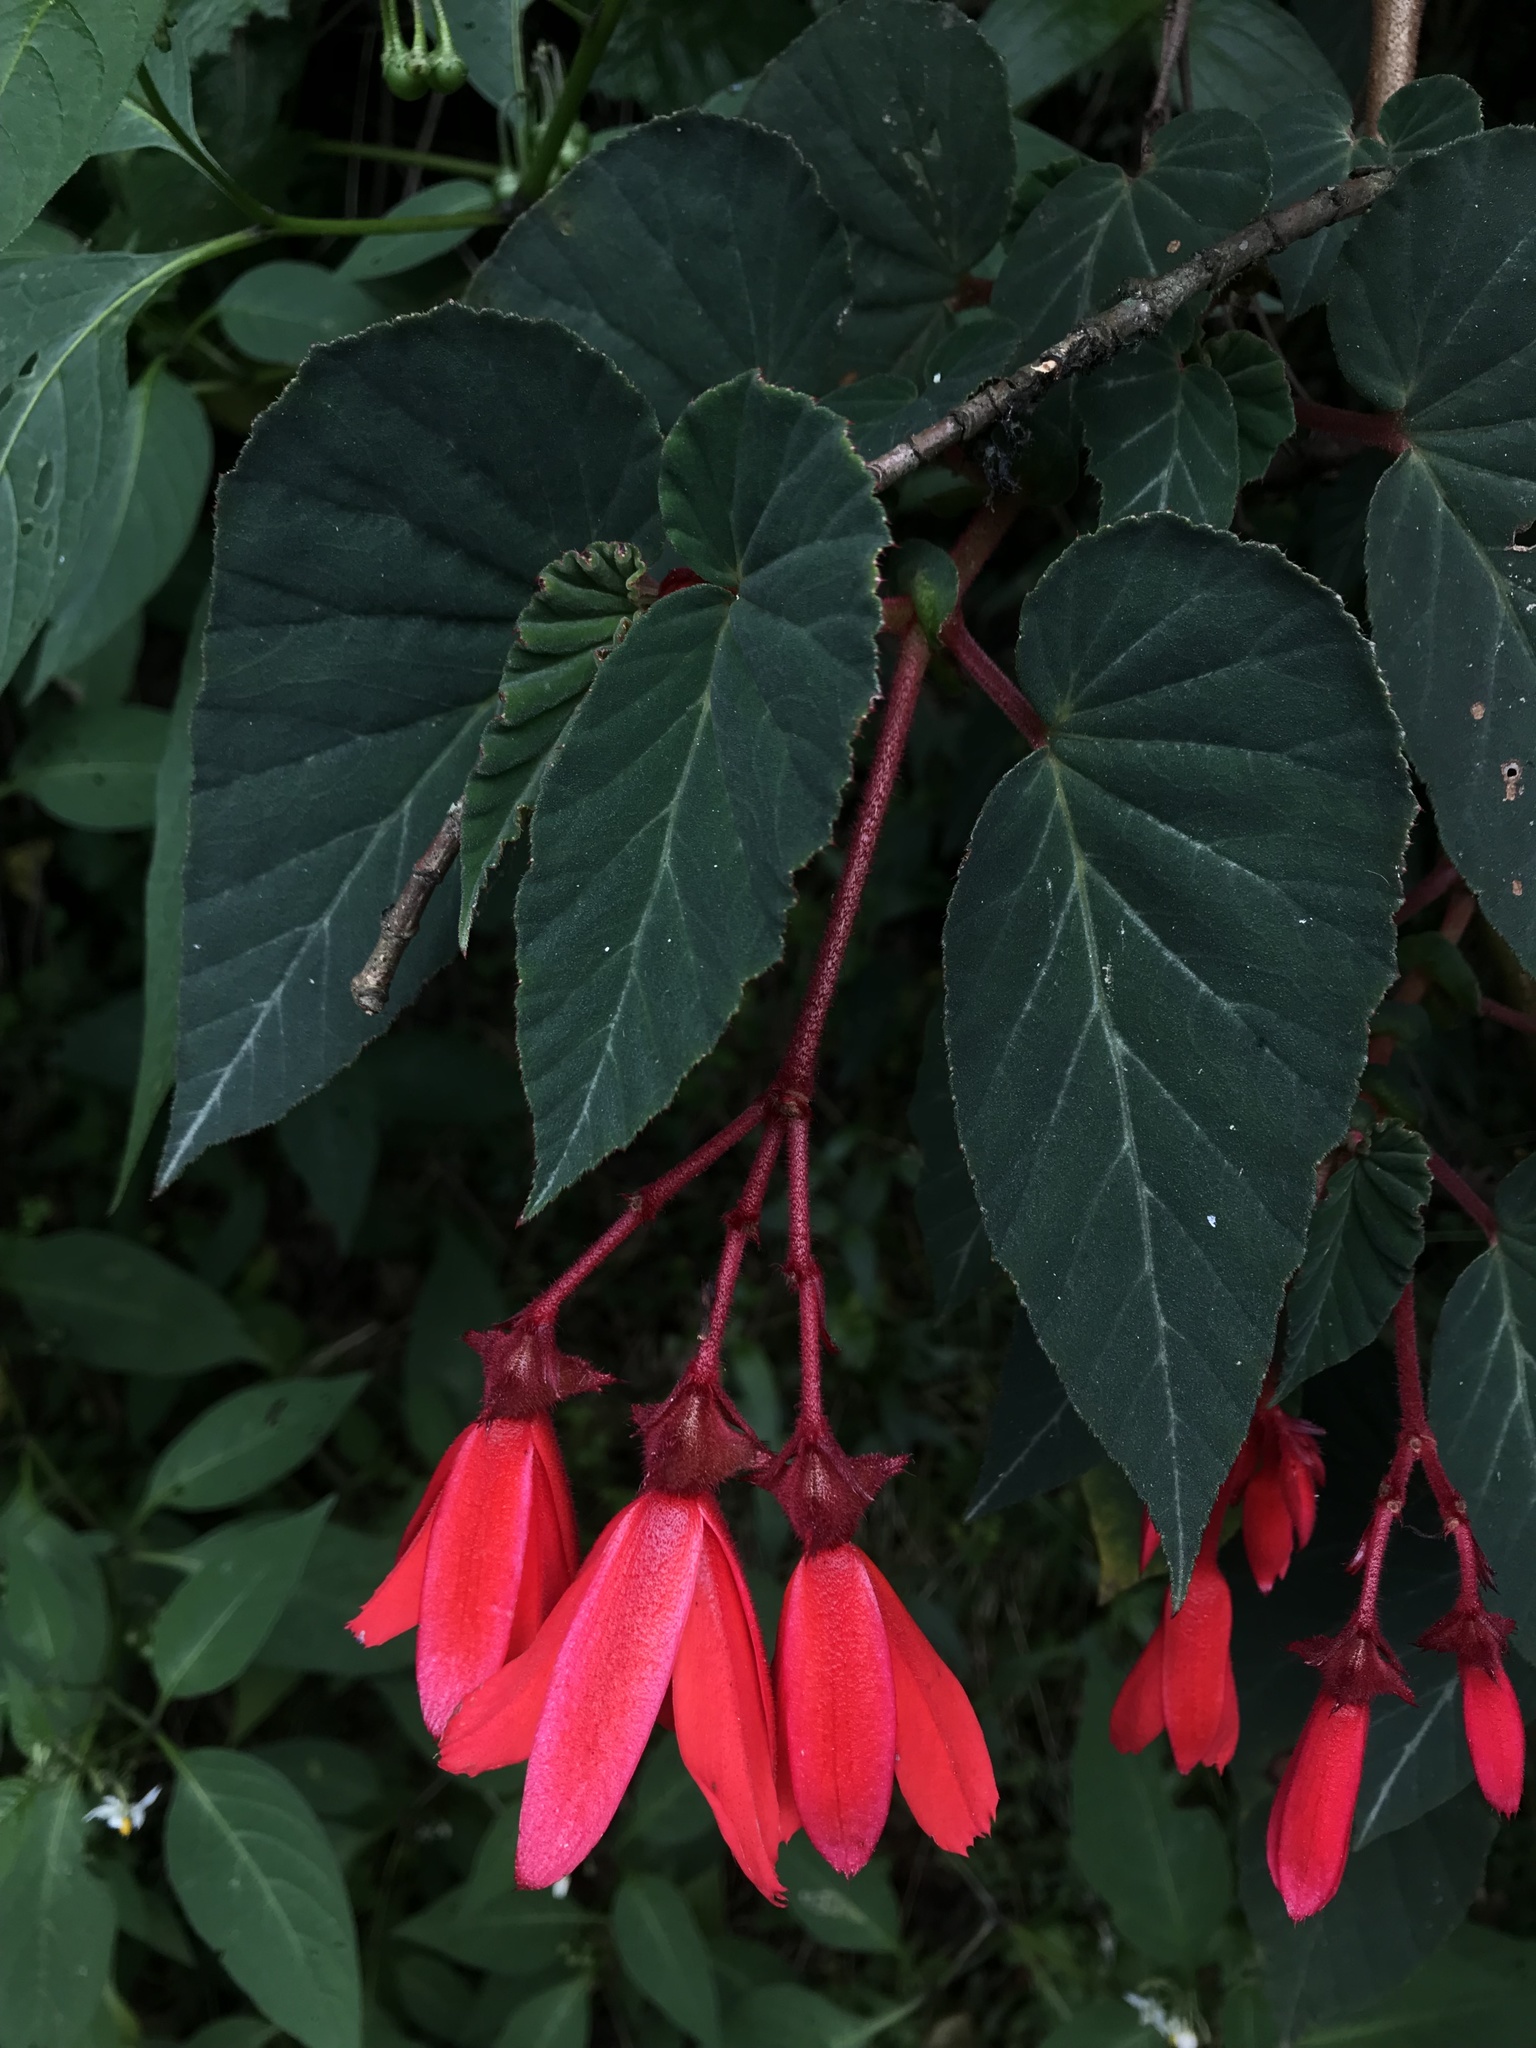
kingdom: Plantae
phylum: Tracheophyta
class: Magnoliopsida
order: Cucurbitales
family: Begoniaceae
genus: Begonia
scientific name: Begonia ferruginea
